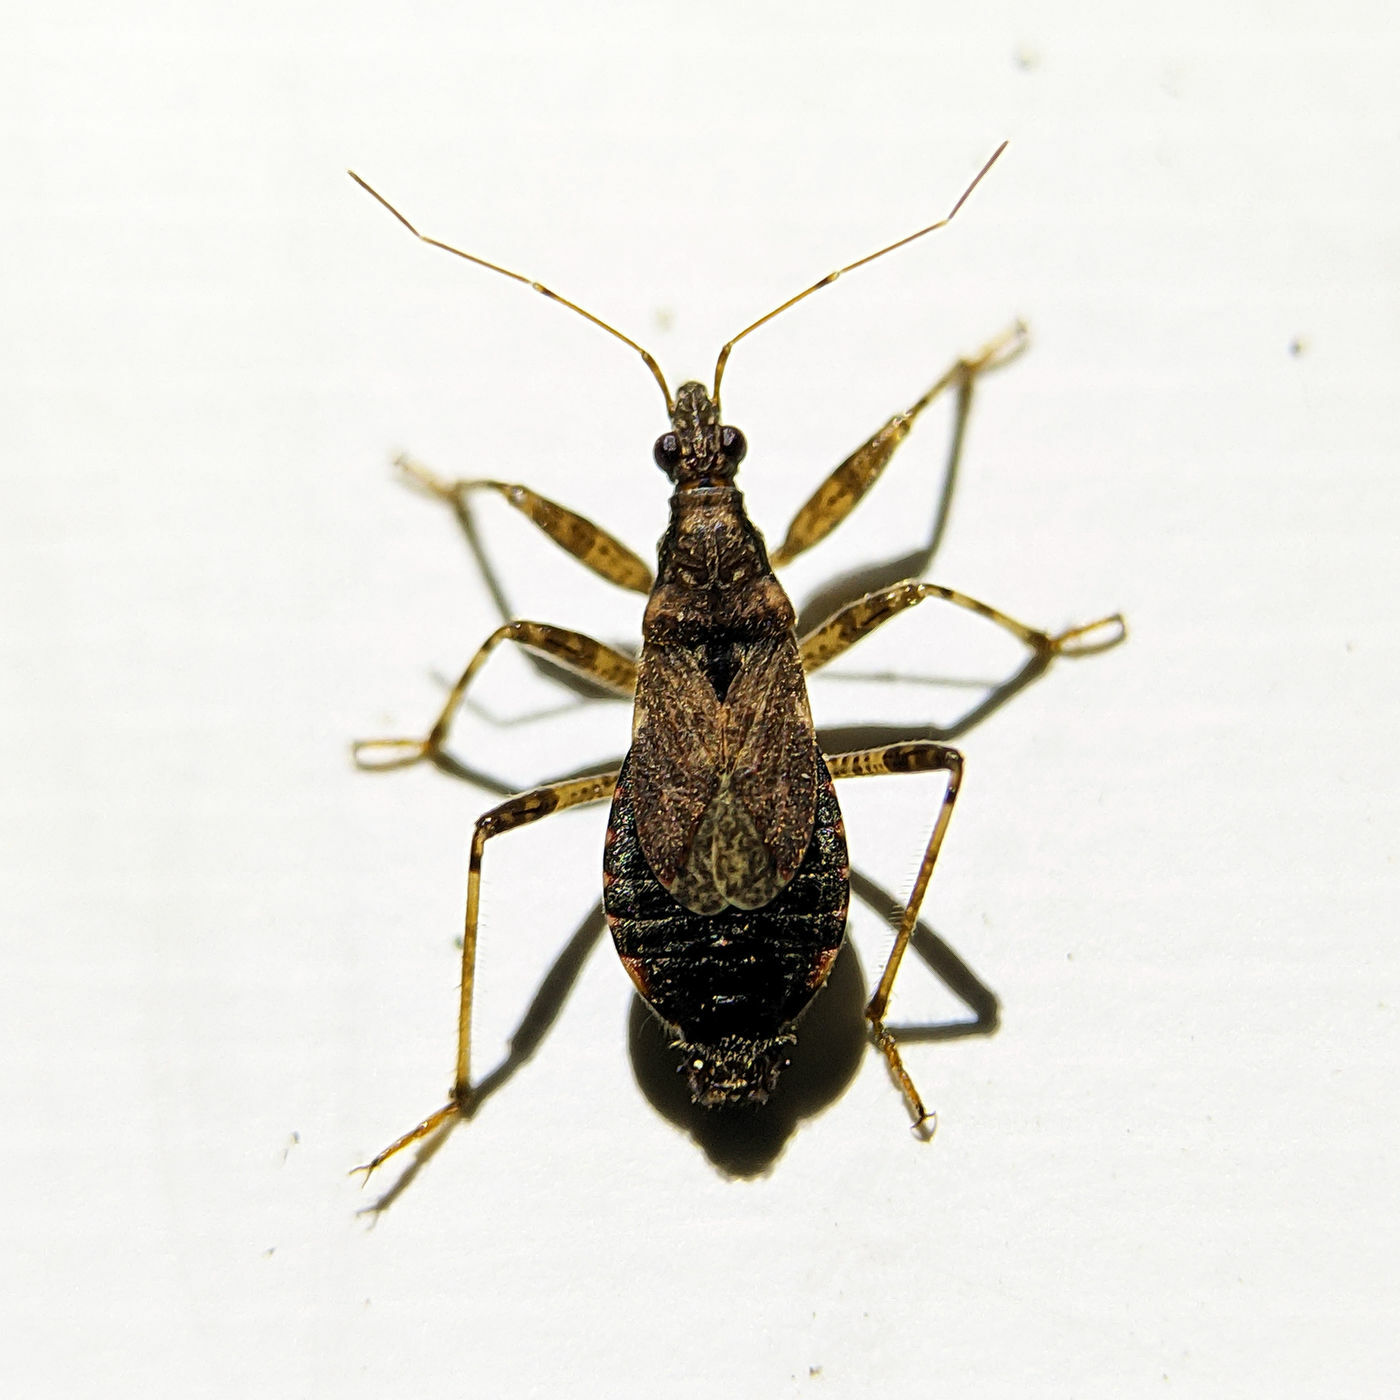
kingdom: Animalia
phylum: Arthropoda
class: Insecta
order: Hemiptera
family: Nabidae
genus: Himacerus
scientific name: Himacerus mirmicoides
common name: Ant damsel bug
